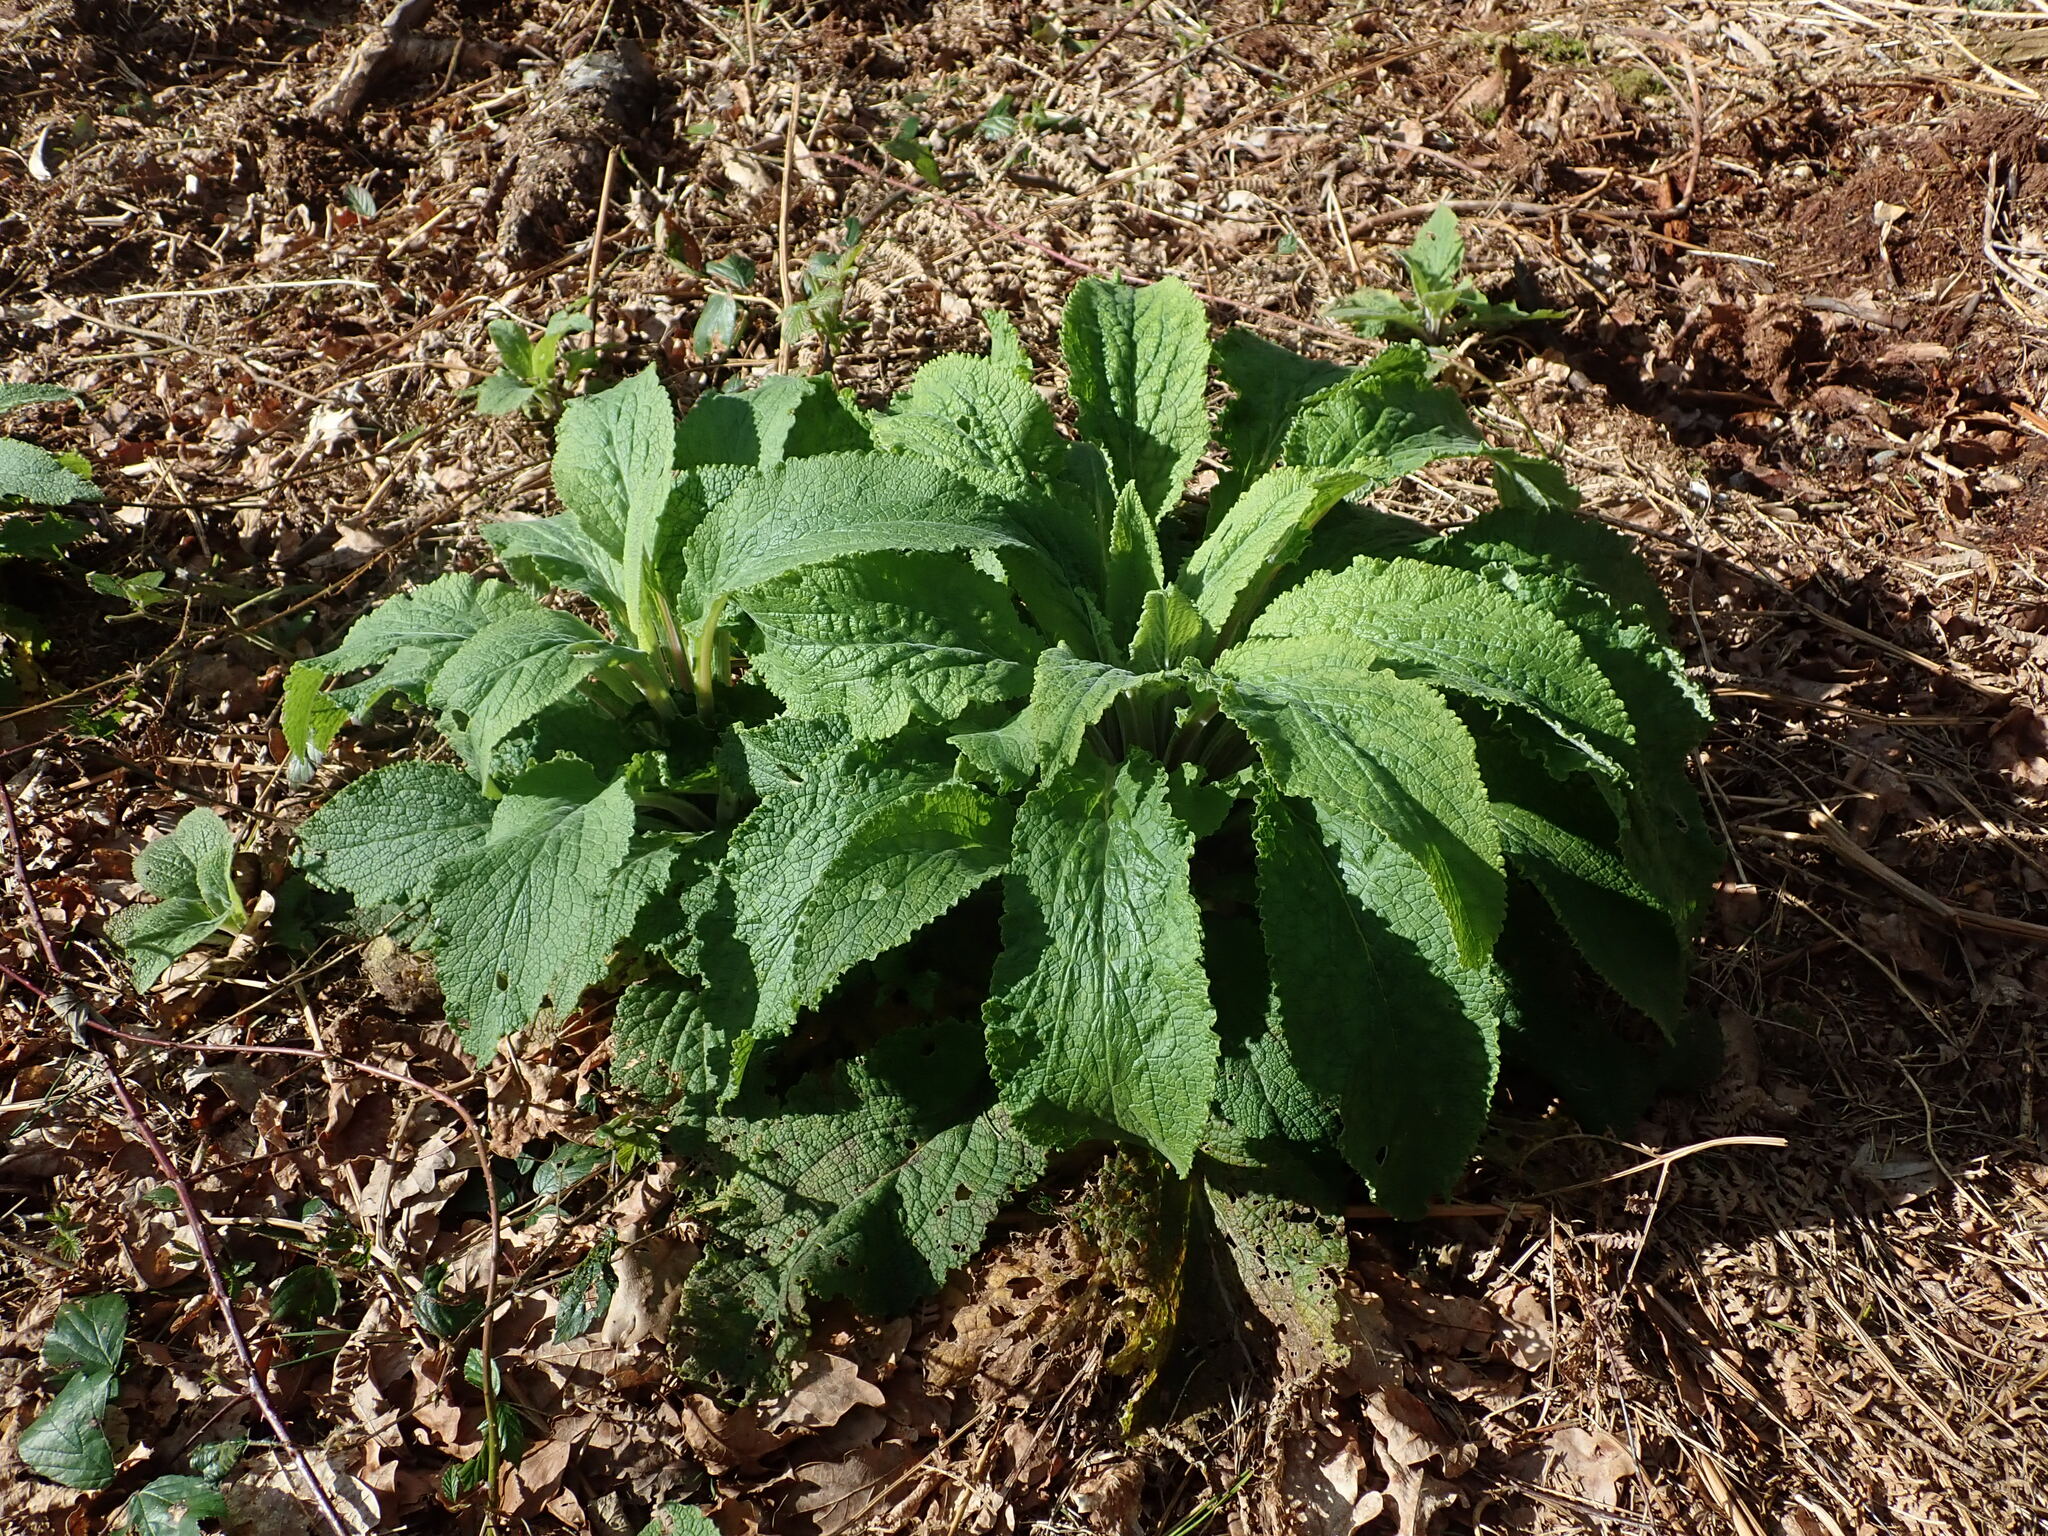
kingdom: Plantae
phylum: Tracheophyta
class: Magnoliopsida
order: Lamiales
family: Plantaginaceae
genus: Digitalis
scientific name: Digitalis purpurea
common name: Foxglove
